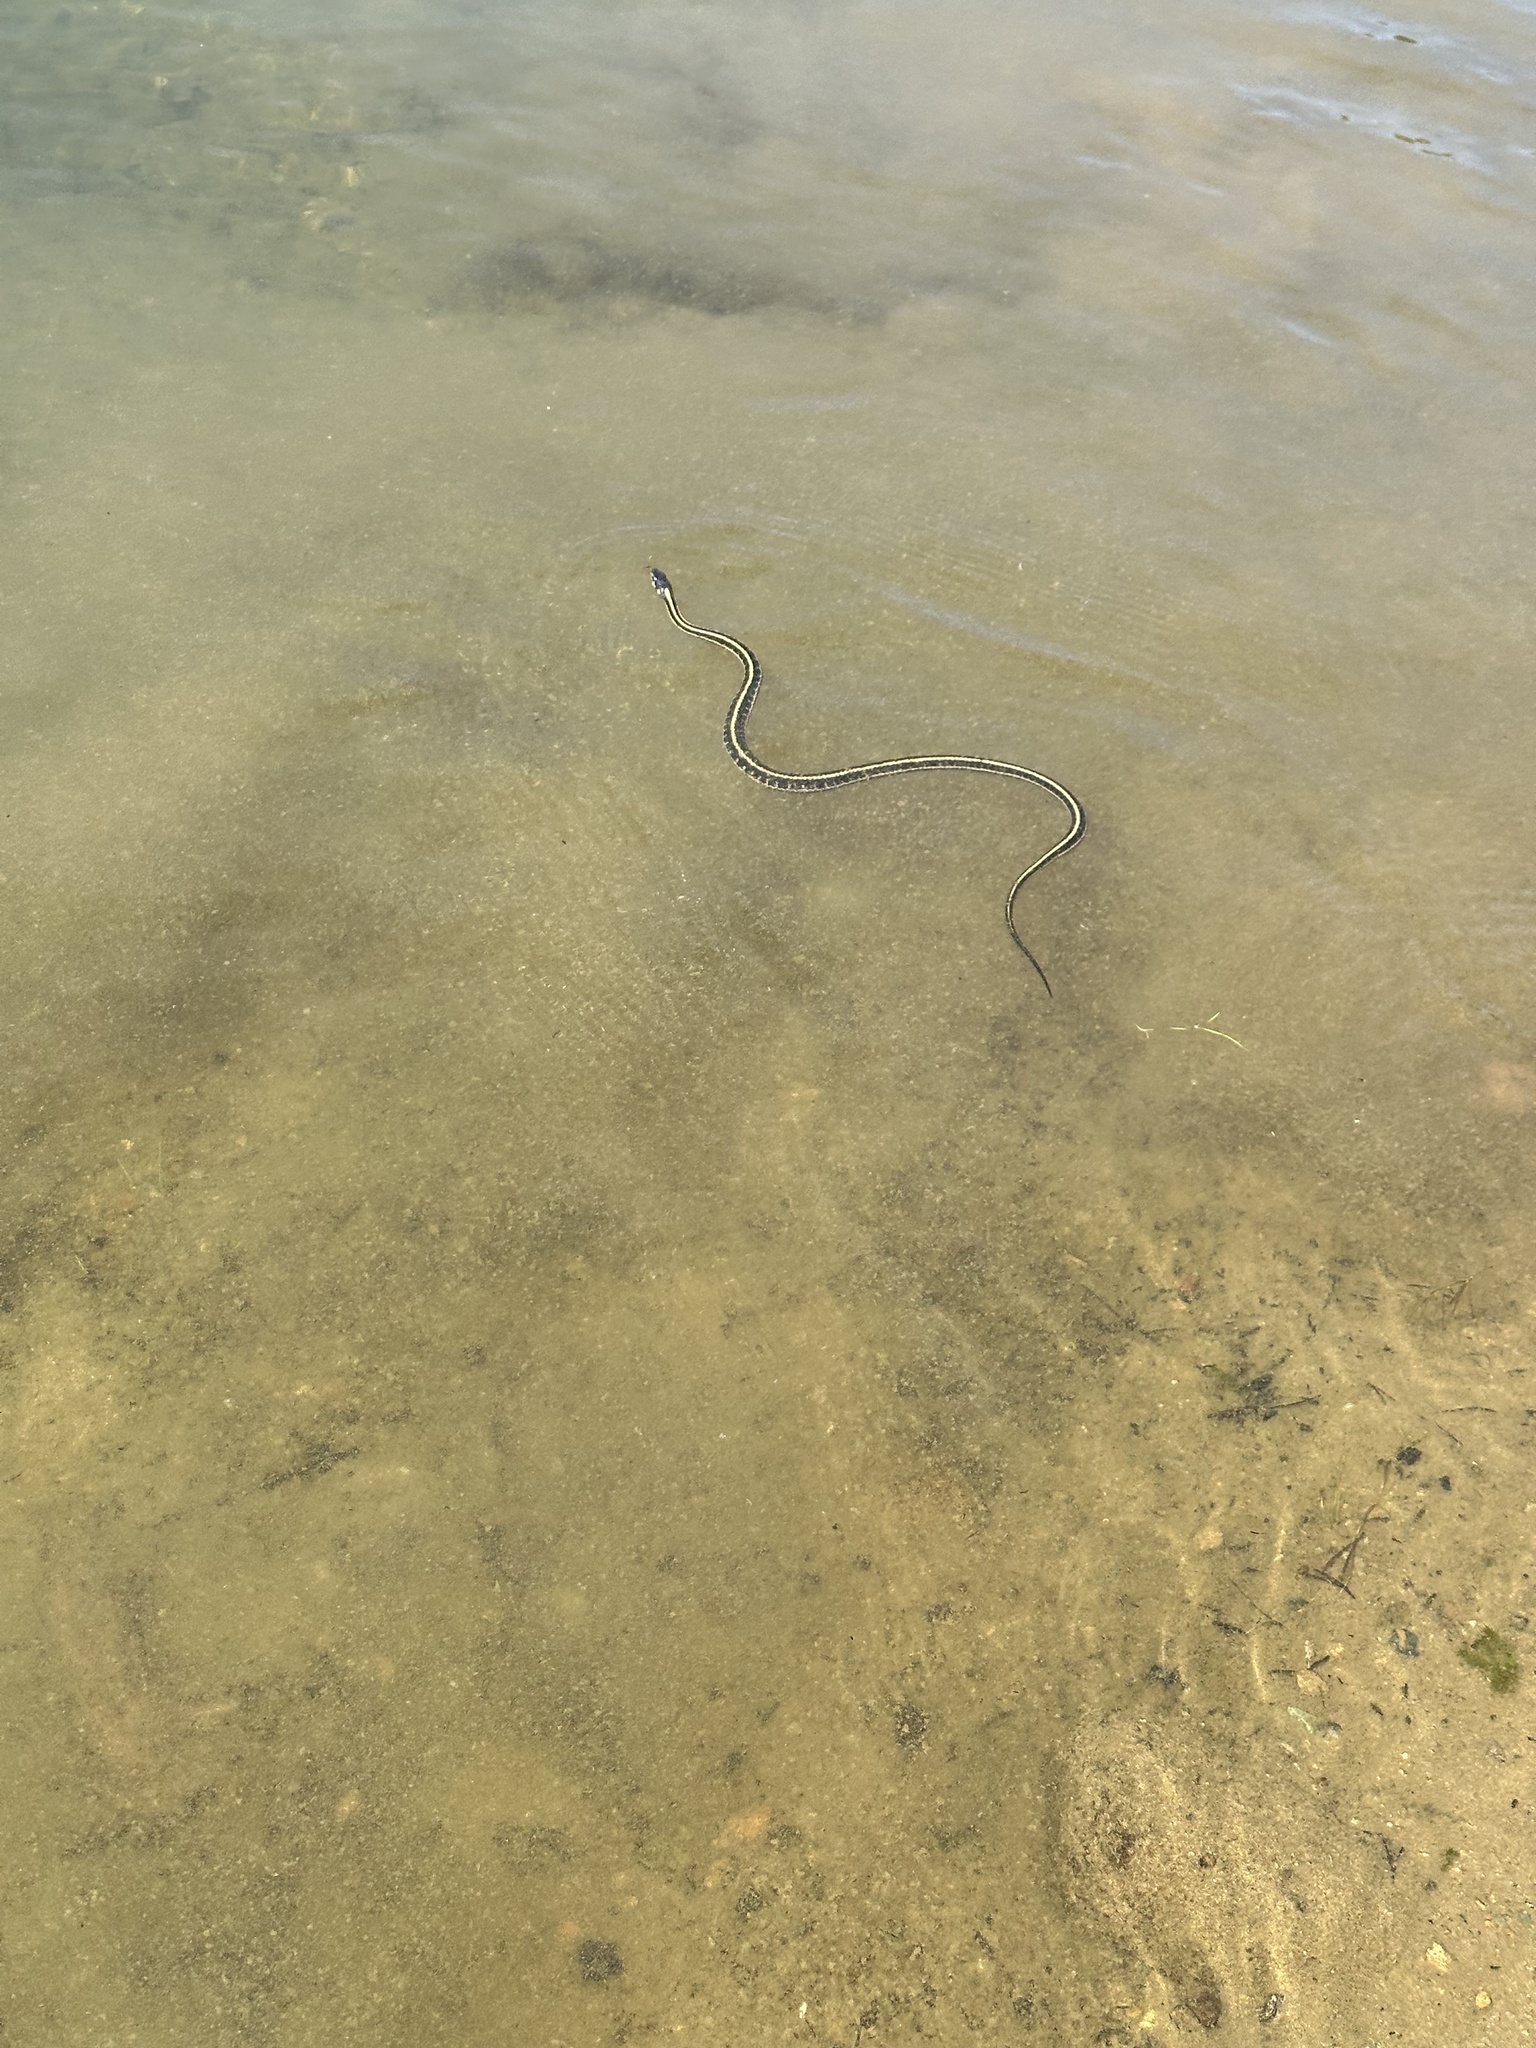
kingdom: Animalia
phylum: Chordata
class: Squamata
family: Colubridae
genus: Thamnophis
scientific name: Thamnophis sirtalis
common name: Common garter snake
